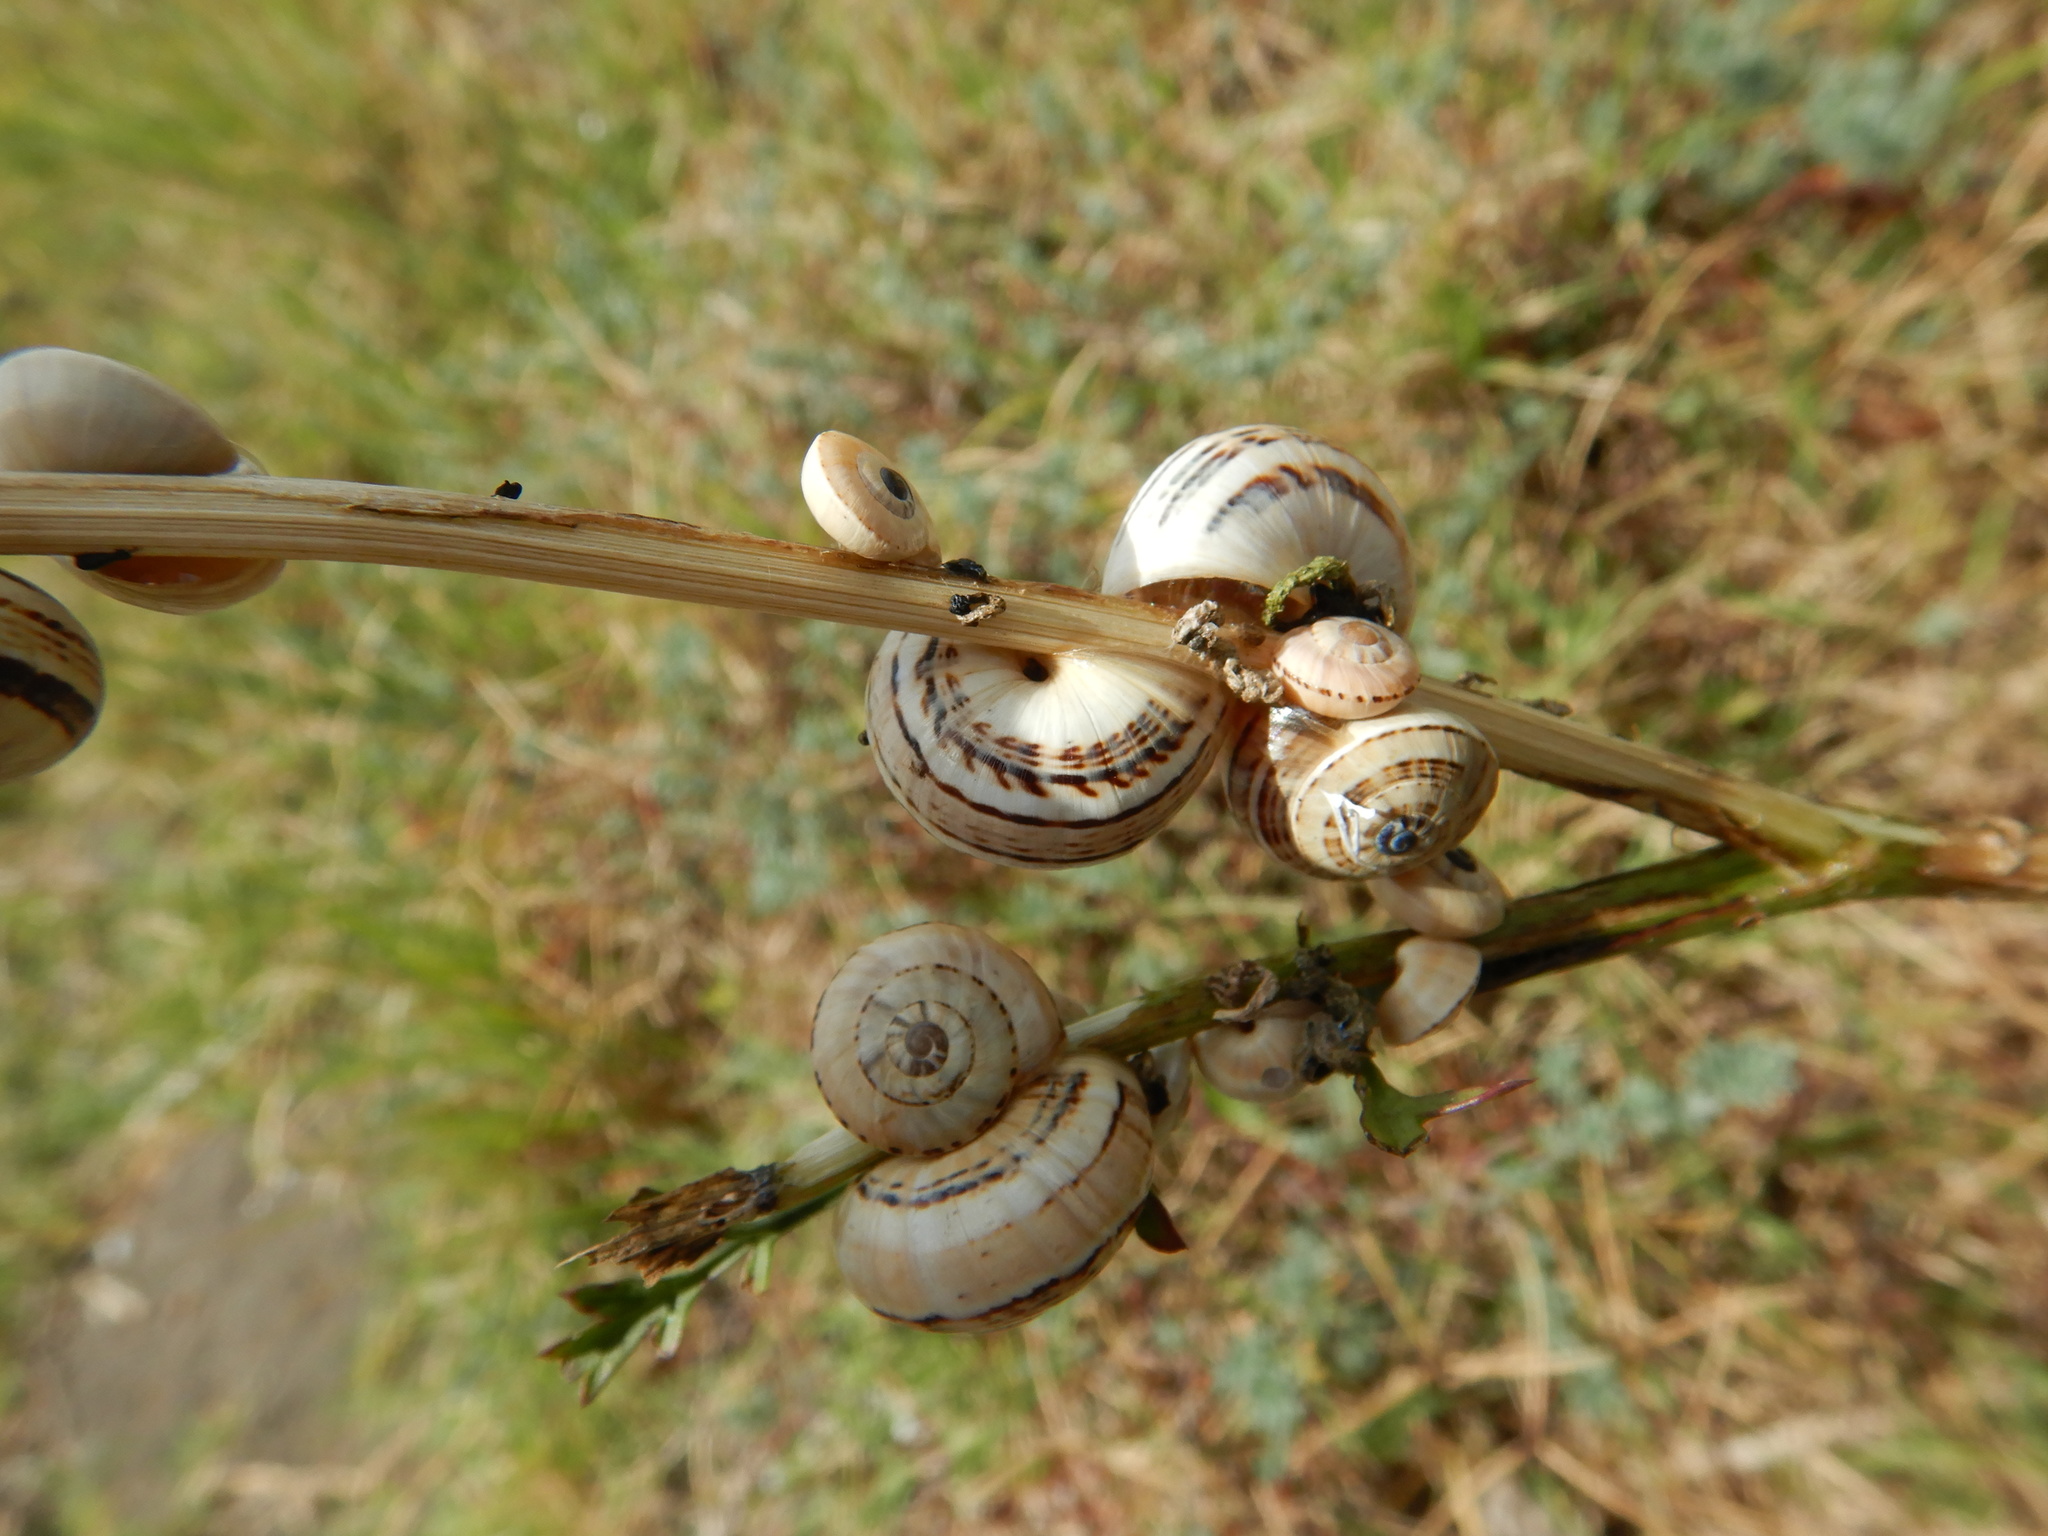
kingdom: Animalia
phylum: Mollusca
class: Gastropoda
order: Stylommatophora
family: Helicidae
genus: Theba
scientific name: Theba pisana
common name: White snail
